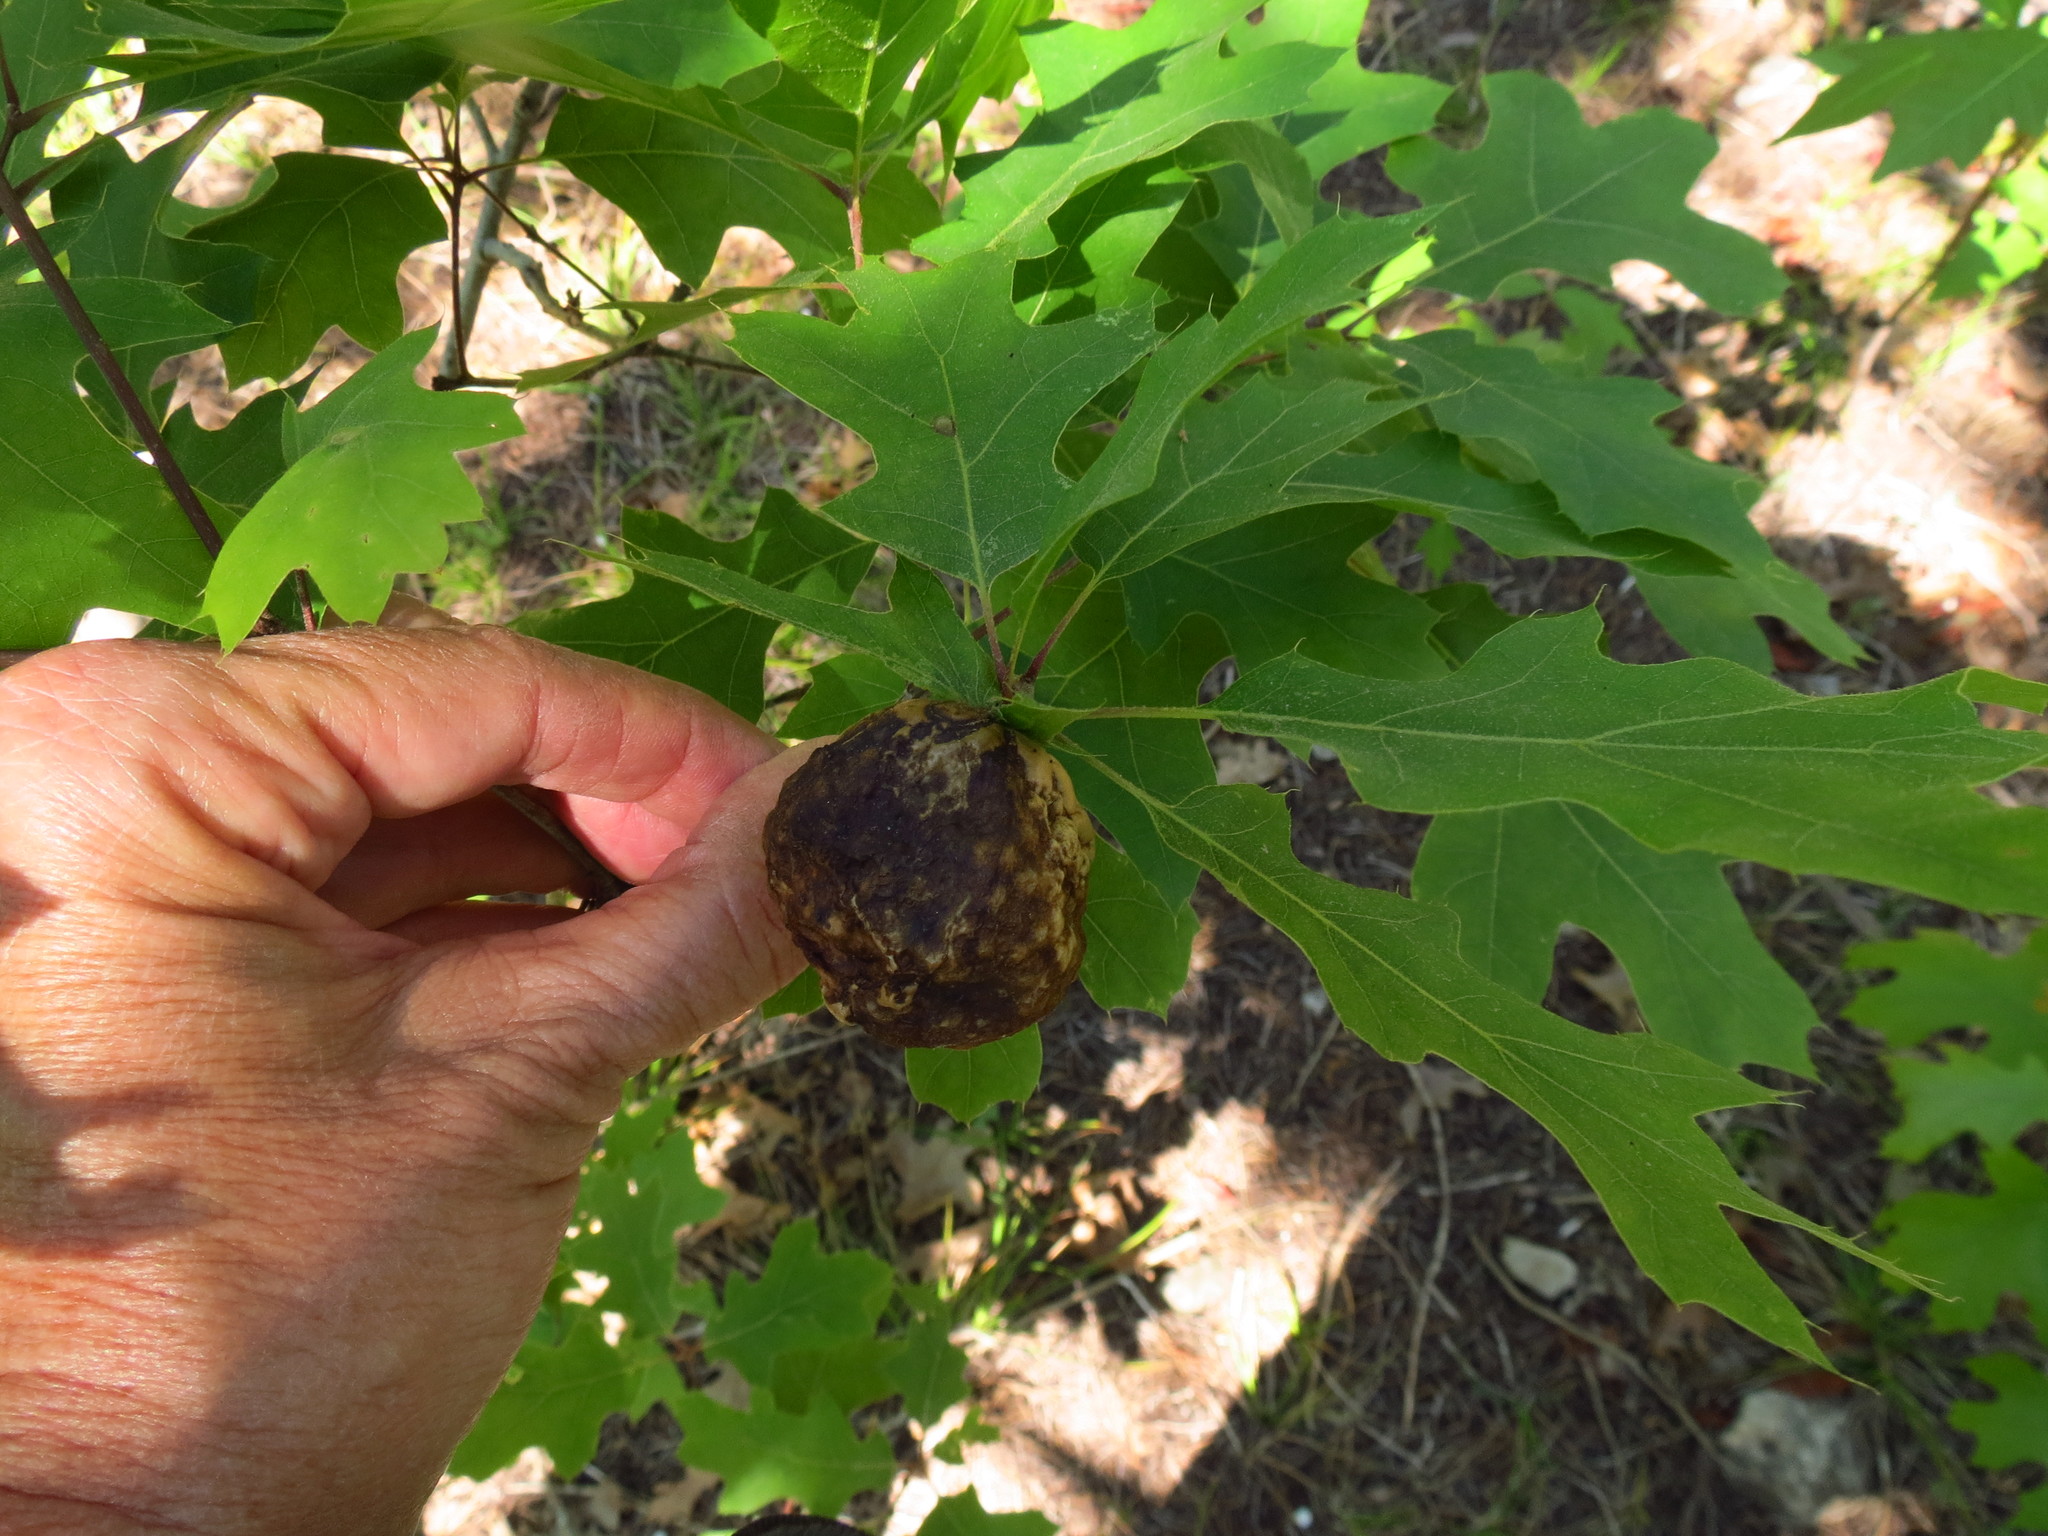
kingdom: Animalia
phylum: Arthropoda
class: Insecta
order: Hymenoptera
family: Cynipidae
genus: Amphibolips
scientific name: Amphibolips
